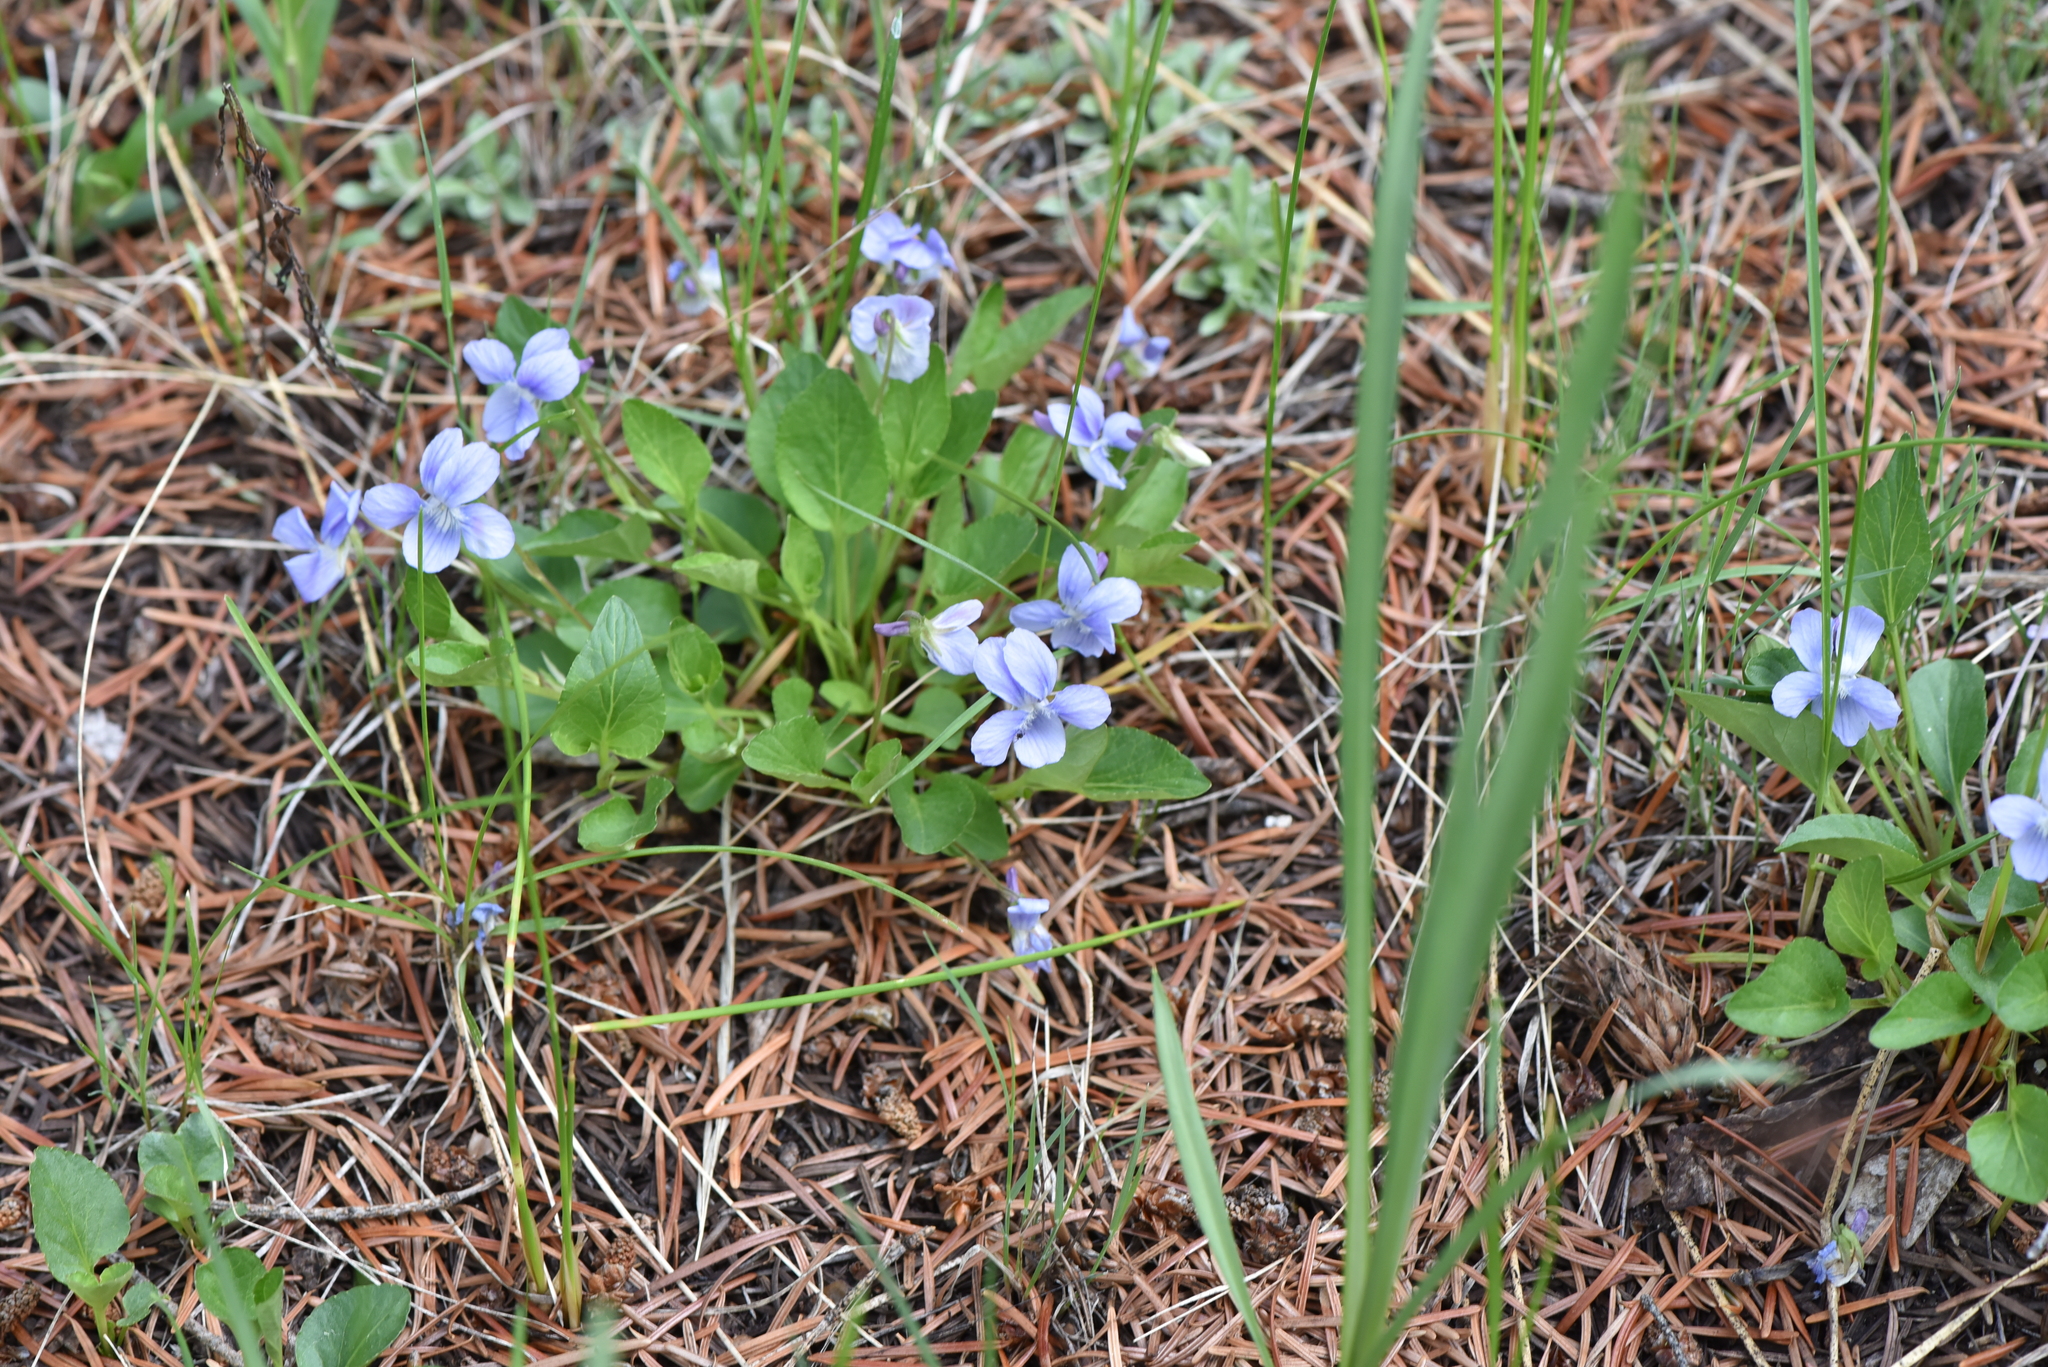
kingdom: Plantae
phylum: Tracheophyta
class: Magnoliopsida
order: Malpighiales
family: Violaceae
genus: Viola
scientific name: Viola adunca
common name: Sand violet
